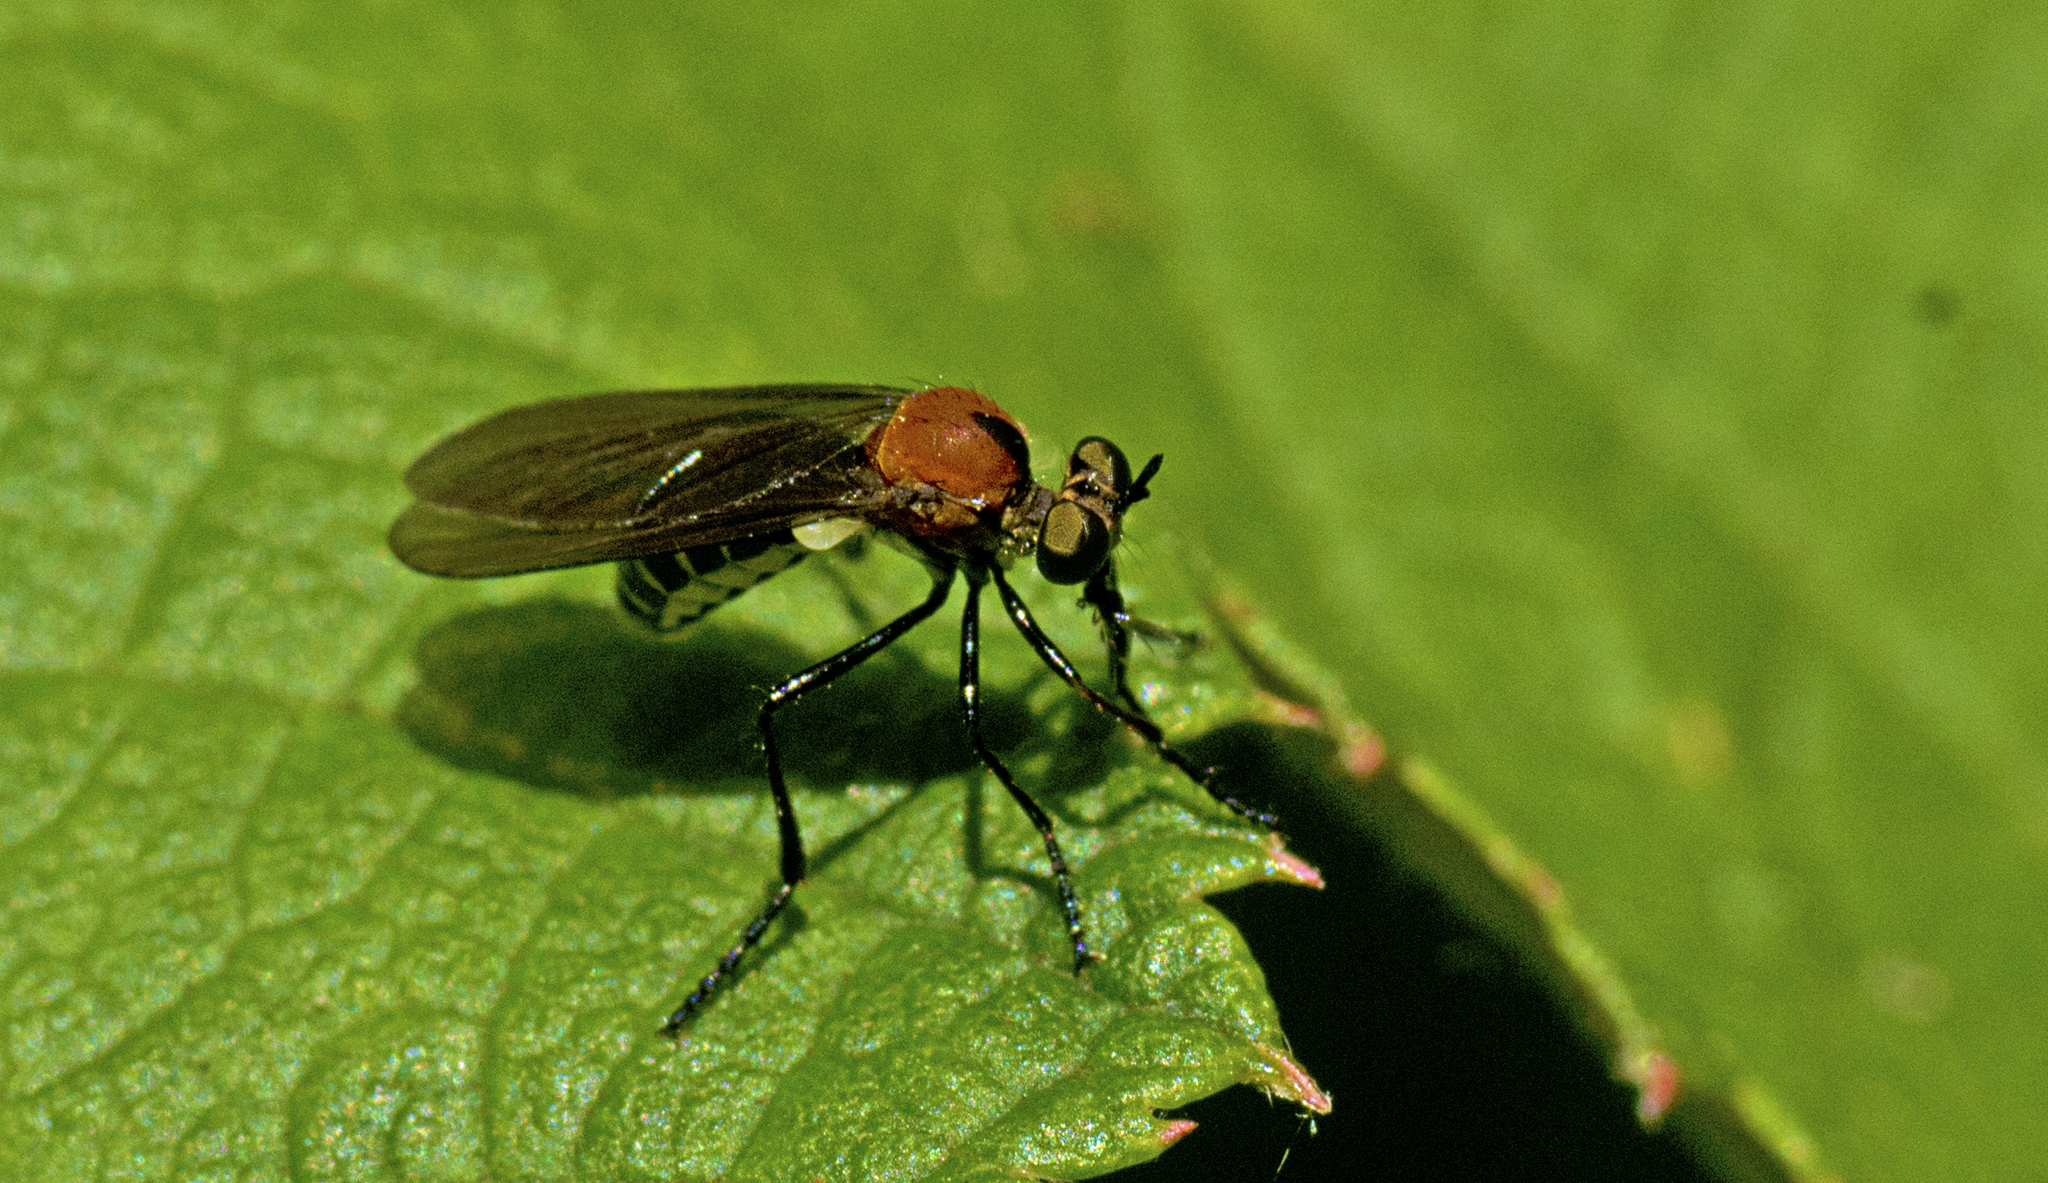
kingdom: Animalia
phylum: Arthropoda
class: Insecta
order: Diptera
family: Asilidae
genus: Cabasa
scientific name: Cabasa pulchella
